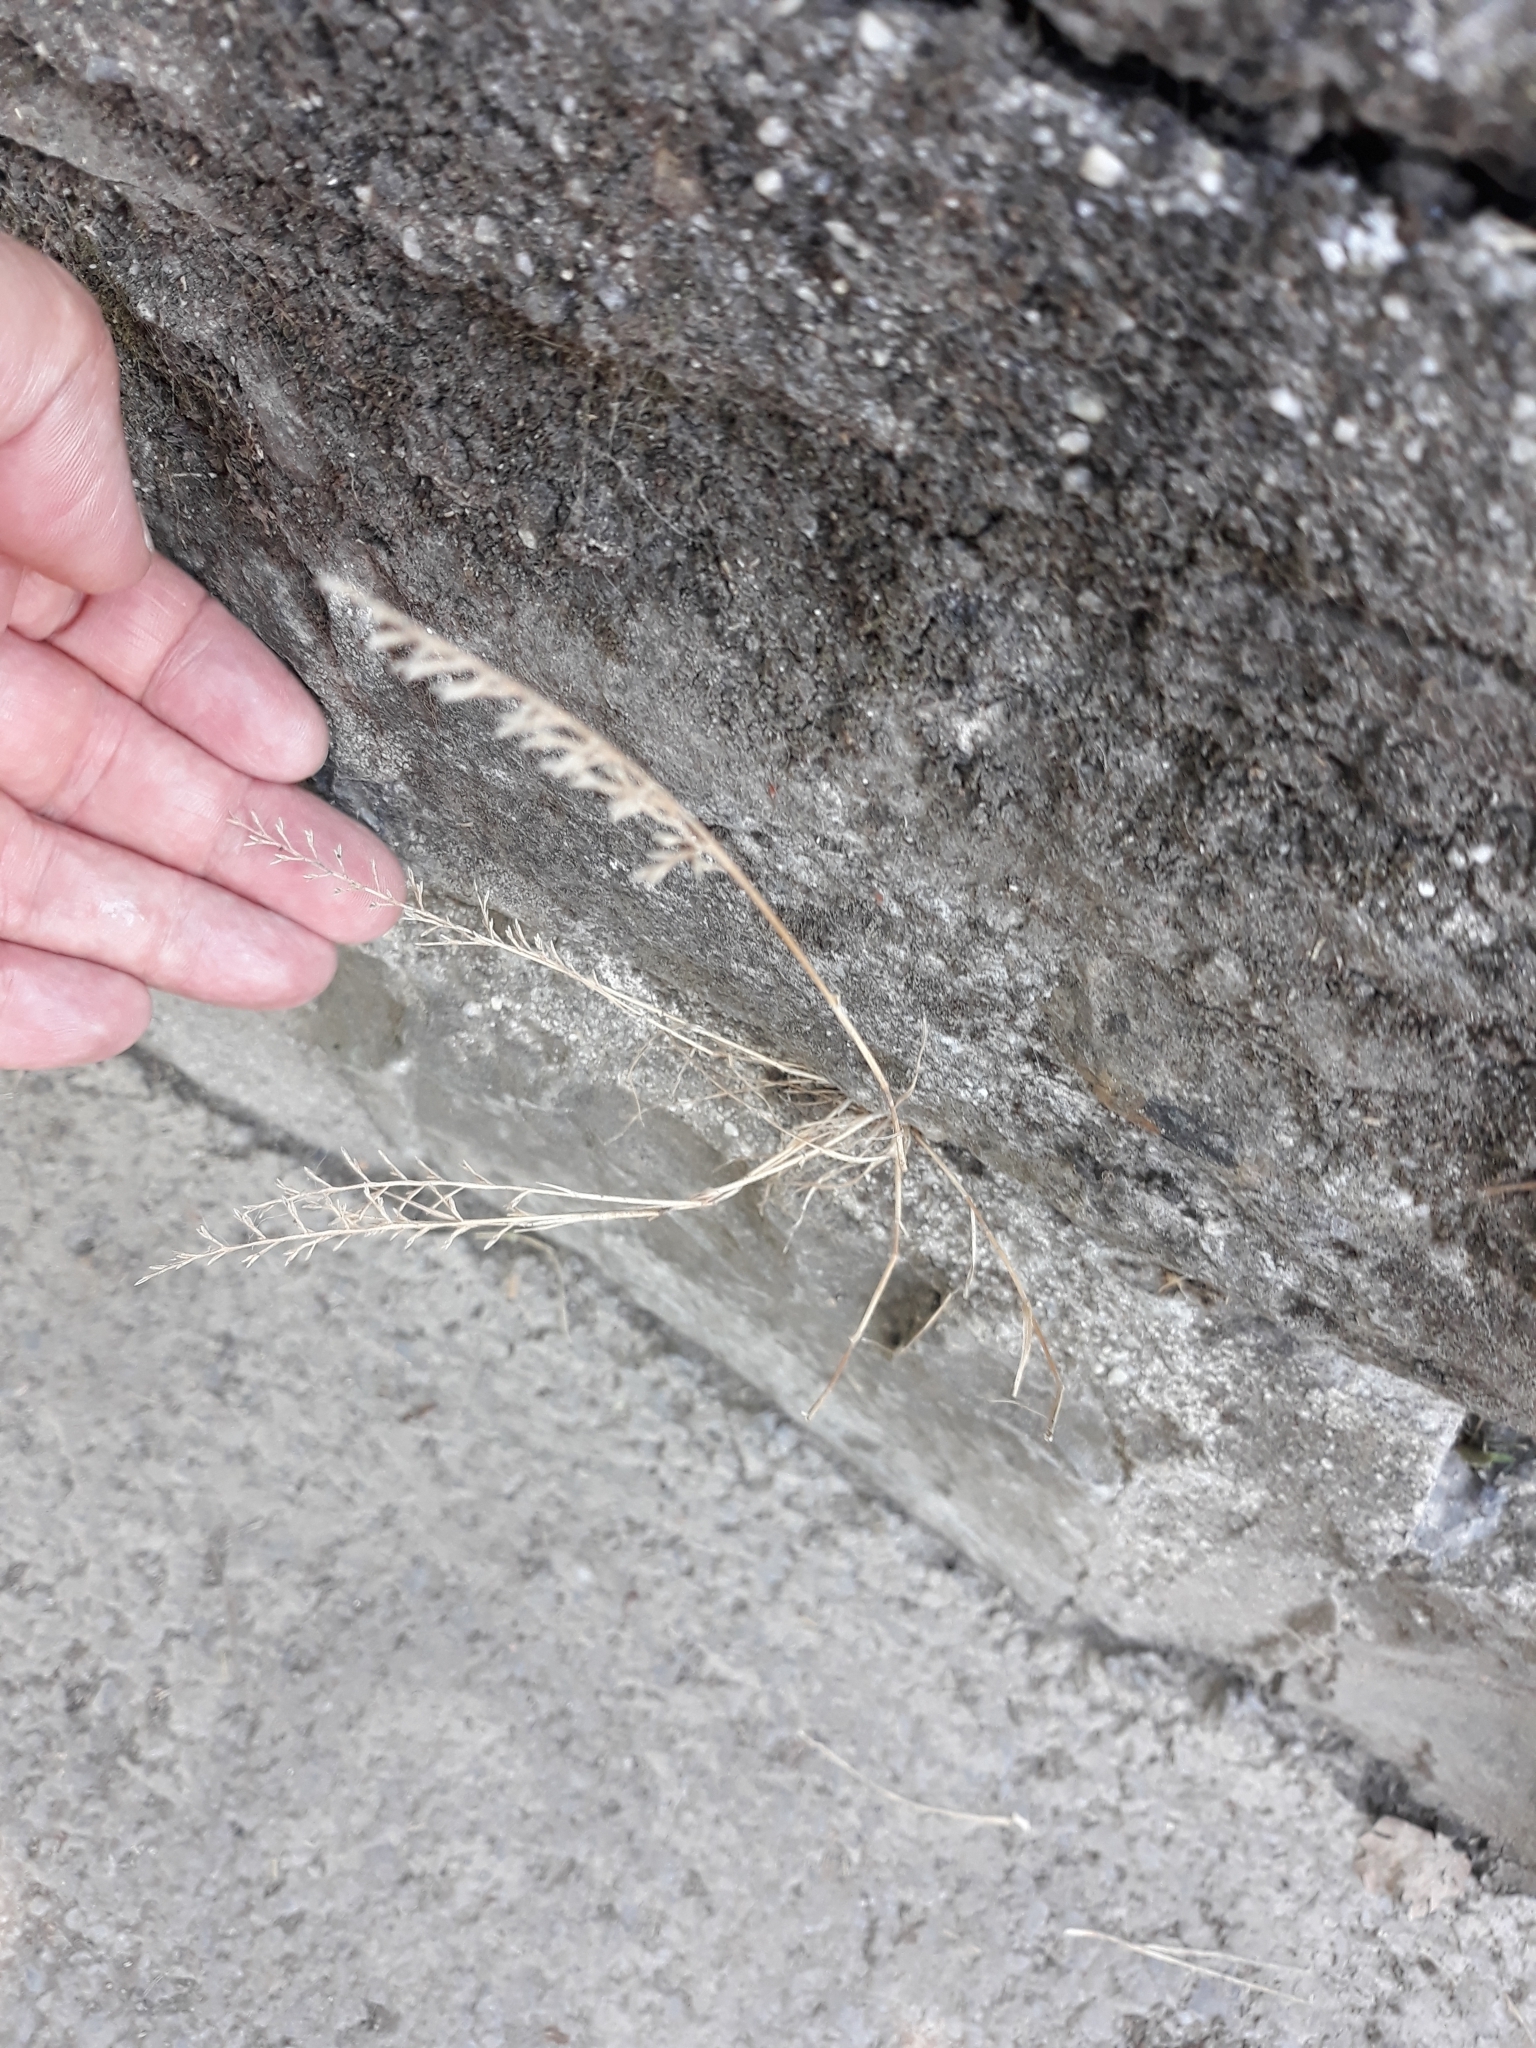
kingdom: Plantae
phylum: Tracheophyta
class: Liliopsida
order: Poales
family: Poaceae
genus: Catapodium
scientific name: Catapodium rigidum
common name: Fern-grass
